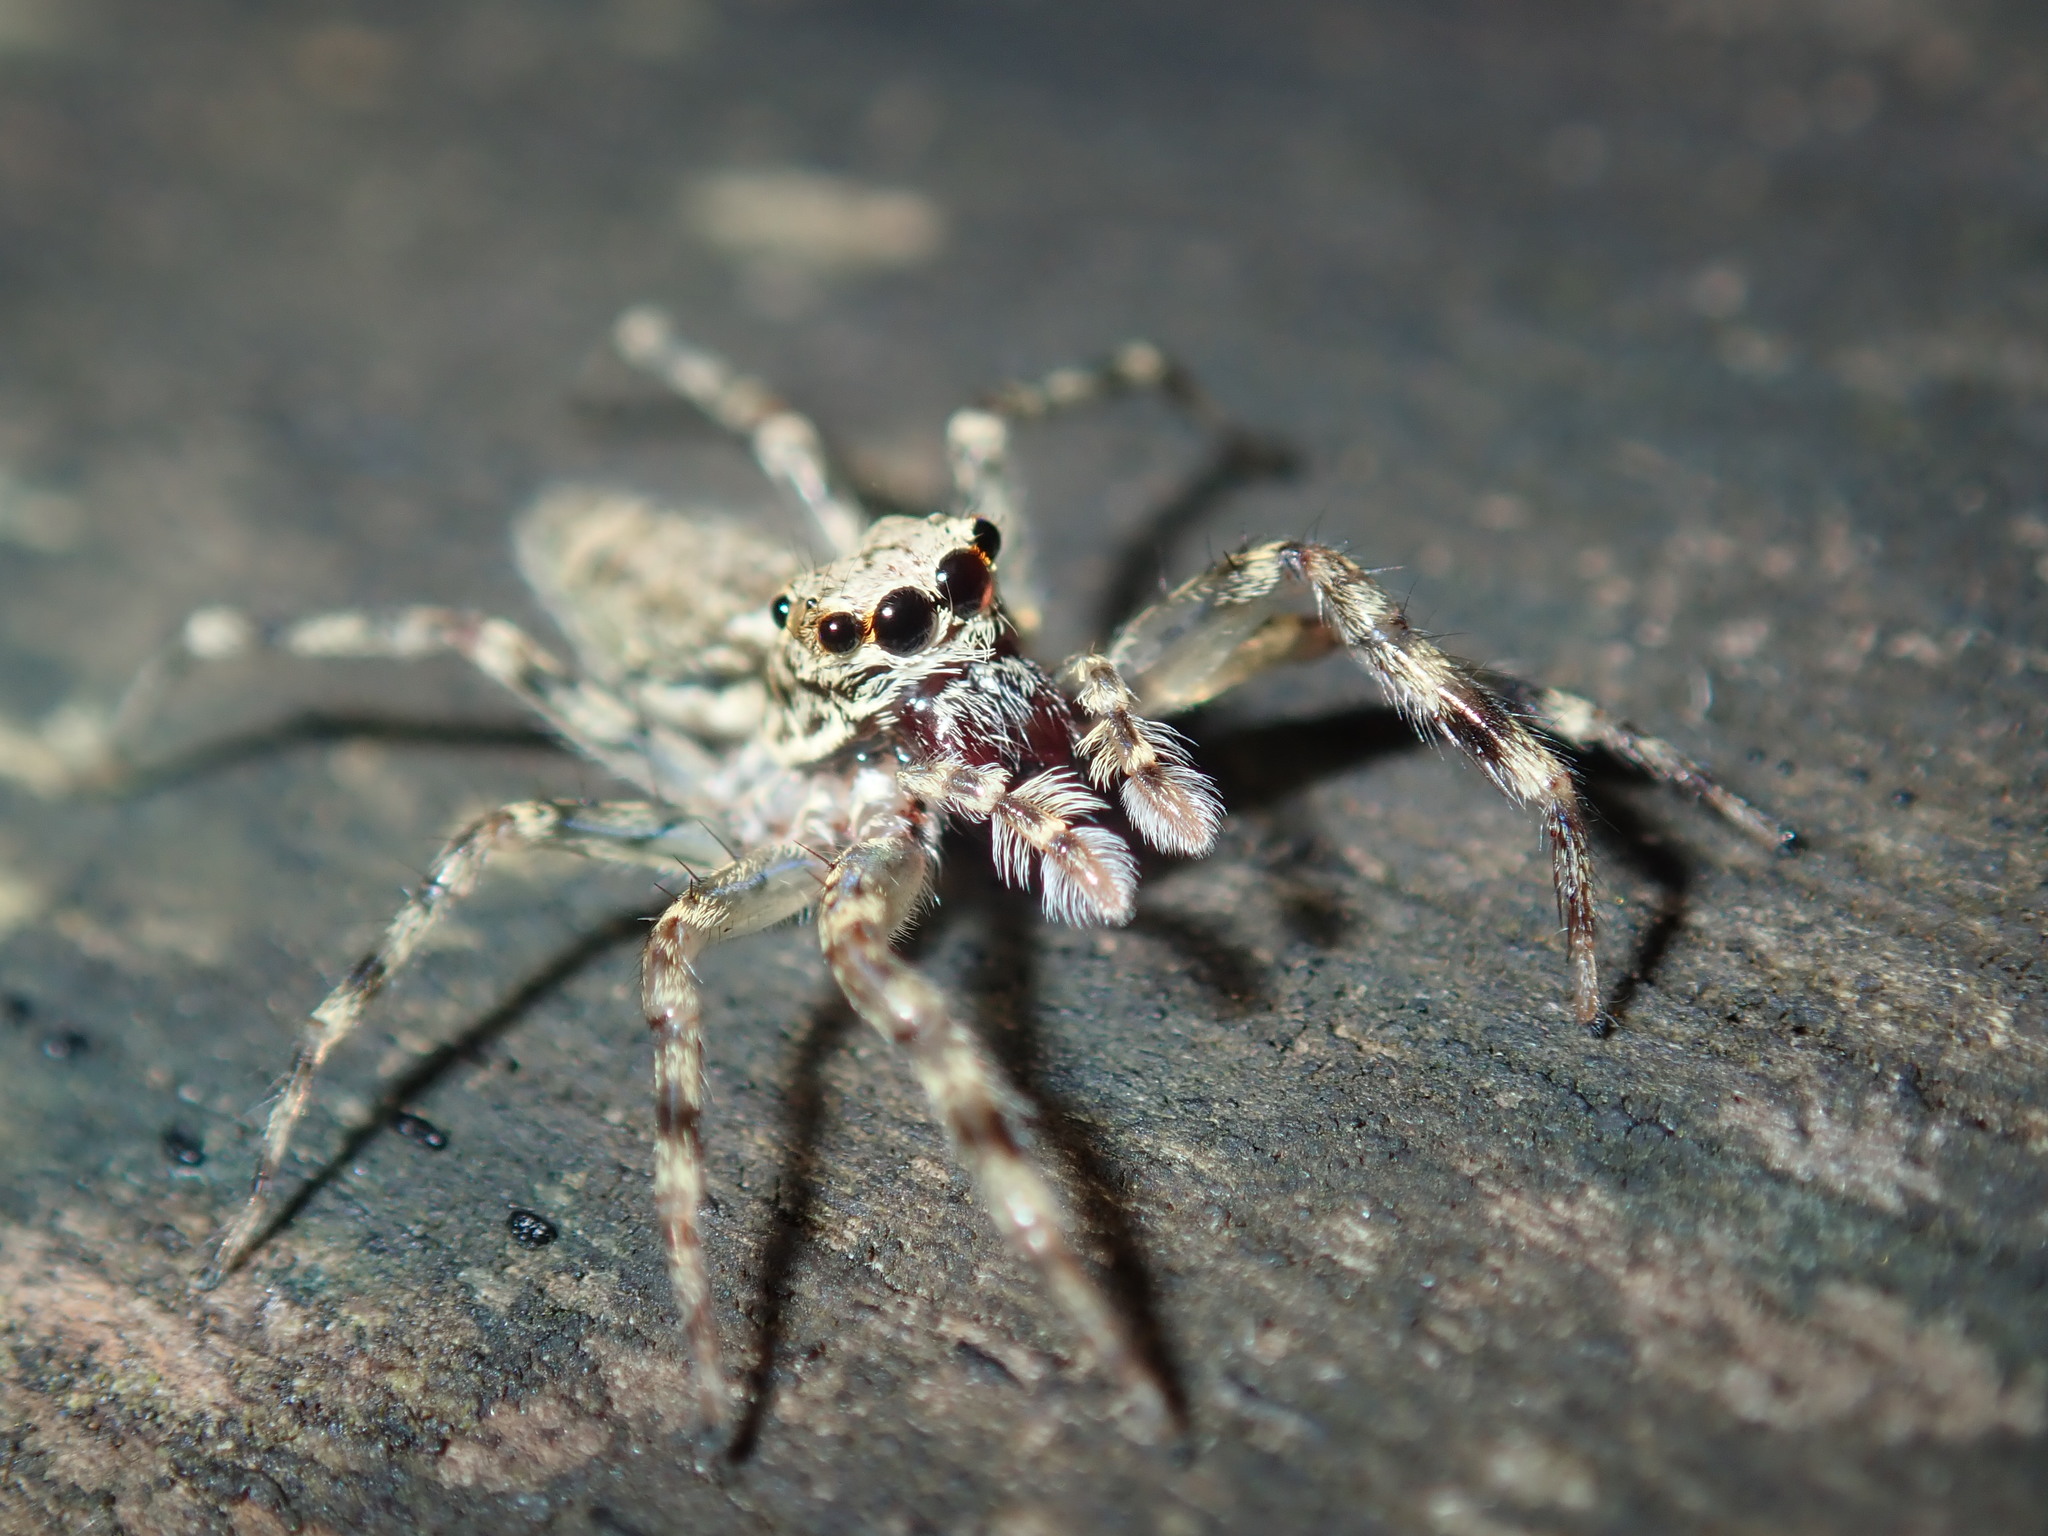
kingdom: Animalia
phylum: Arthropoda
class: Arachnida
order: Araneae
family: Salticidae
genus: Helpis
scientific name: Helpis minitabunda
